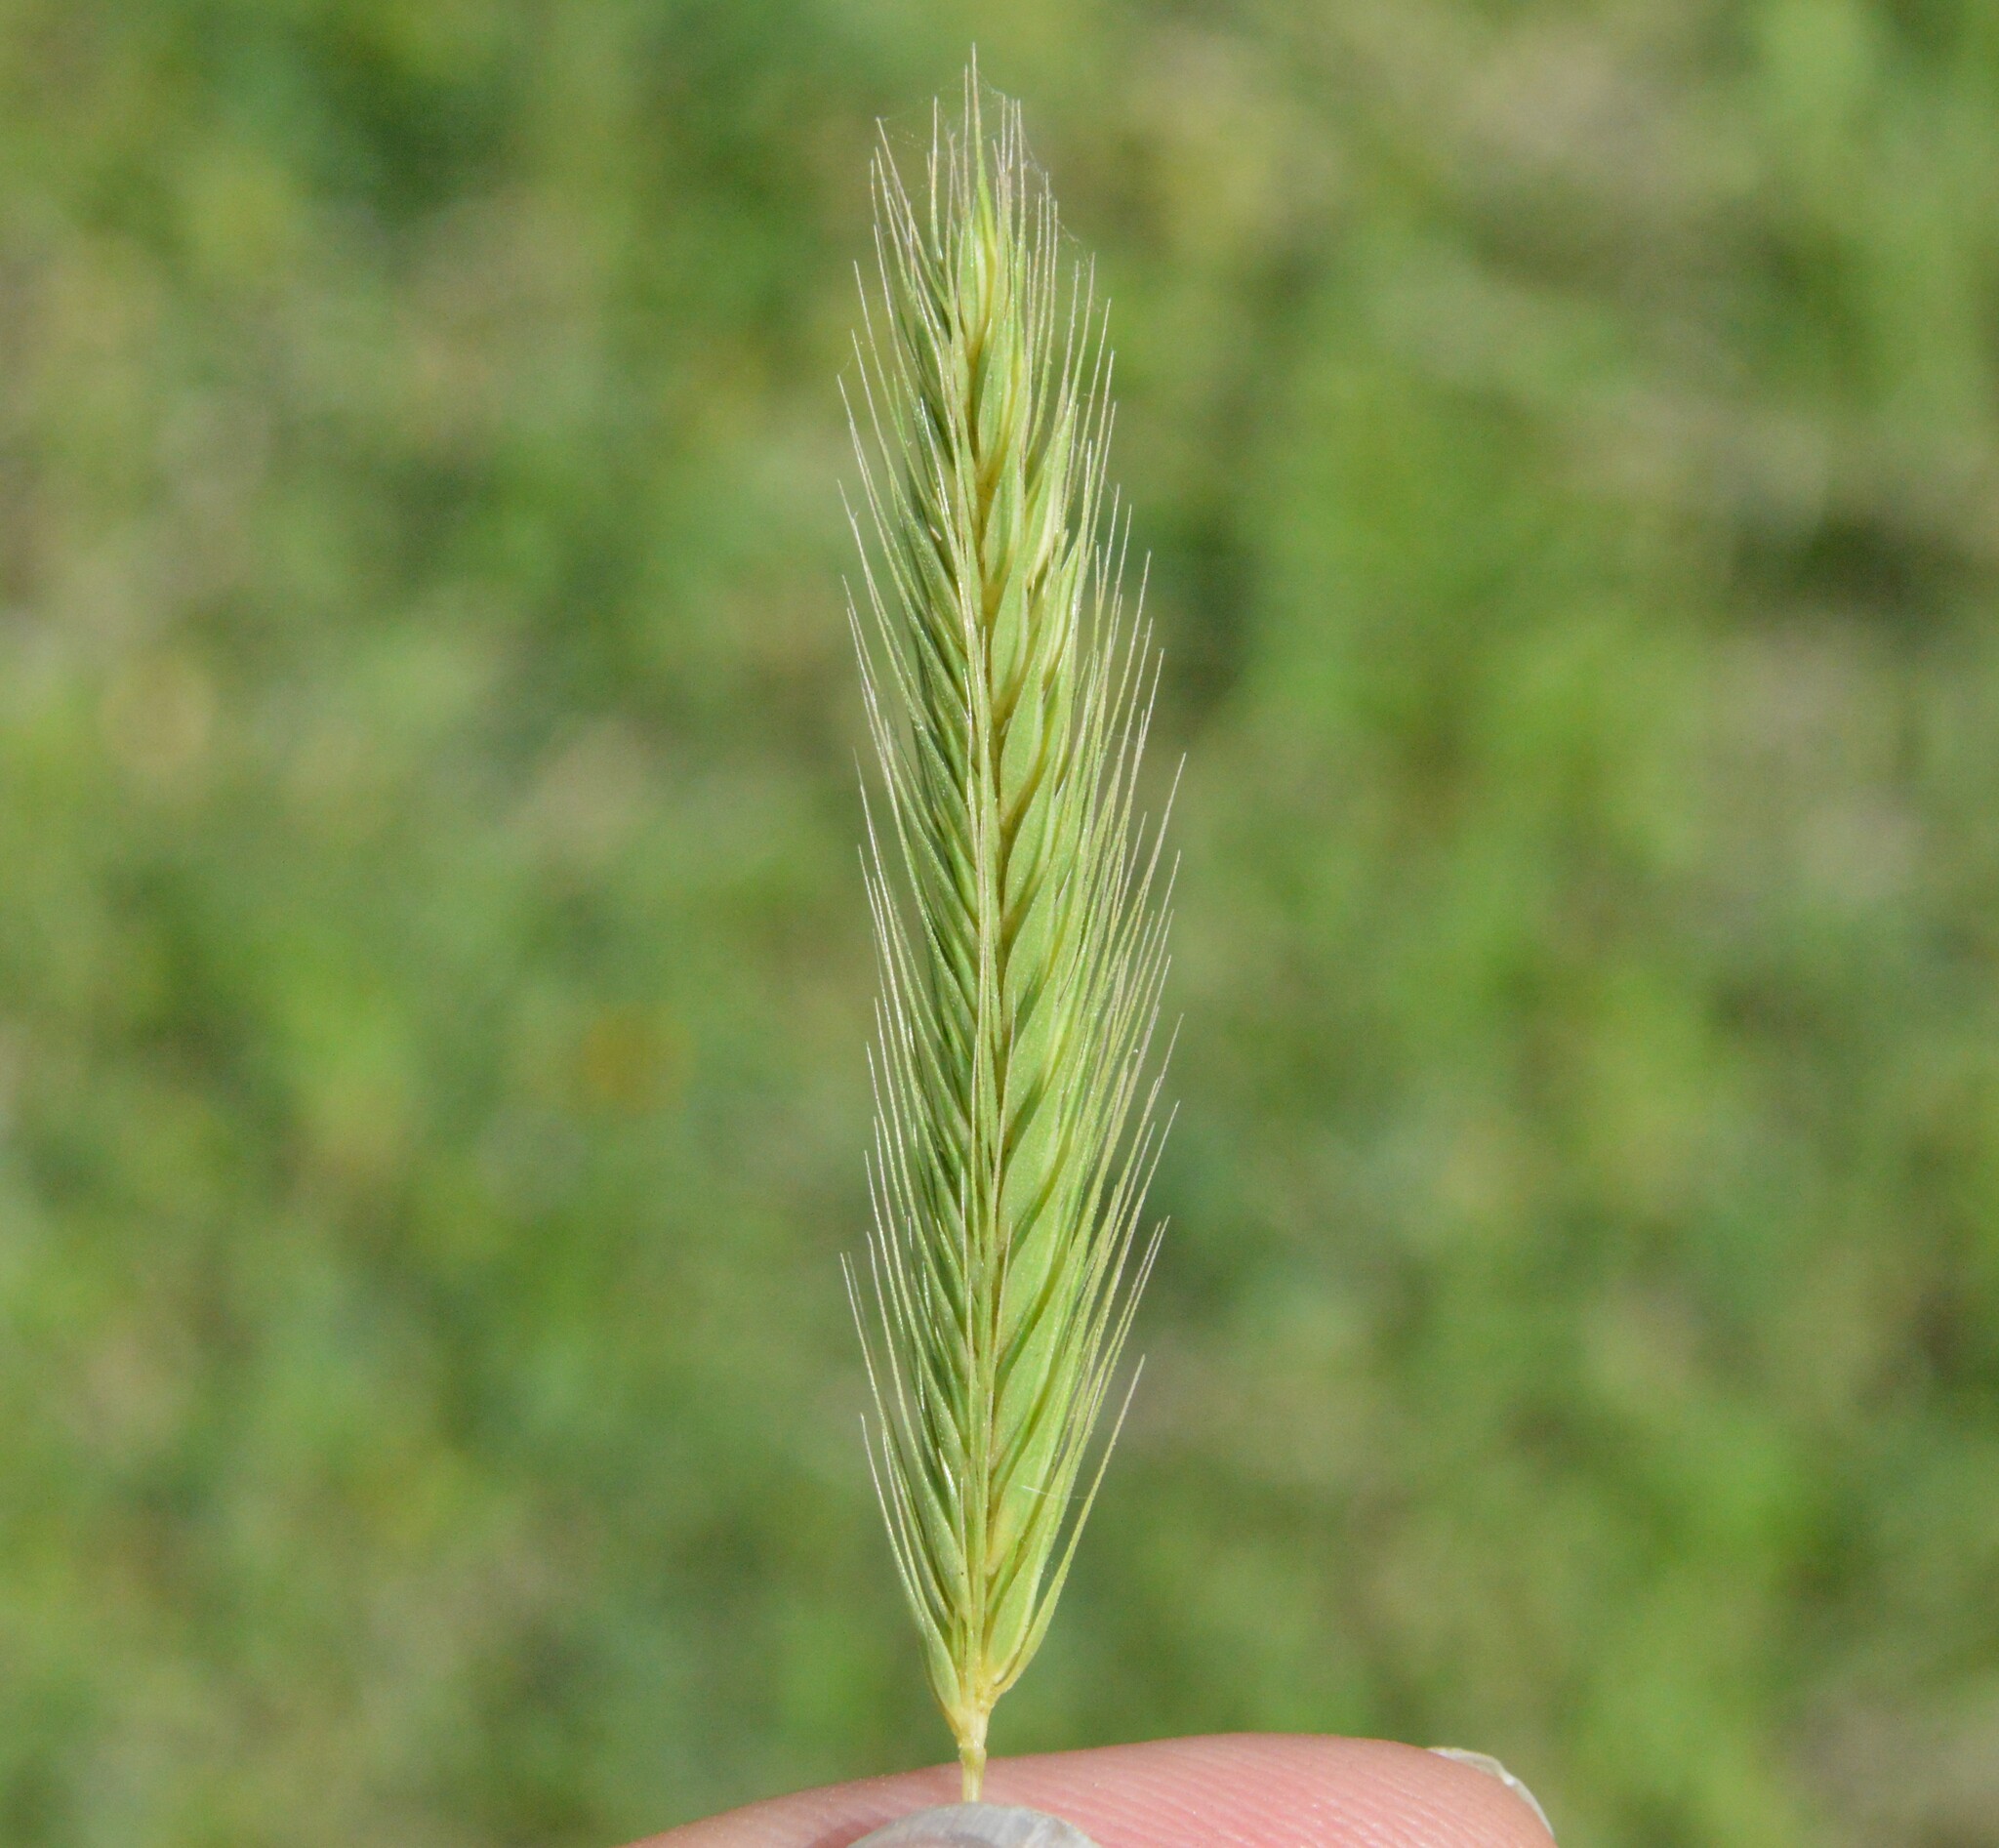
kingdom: Plantae
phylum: Tracheophyta
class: Liliopsida
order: Poales
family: Poaceae
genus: Hordeum
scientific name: Hordeum pusillum
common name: Little barley
